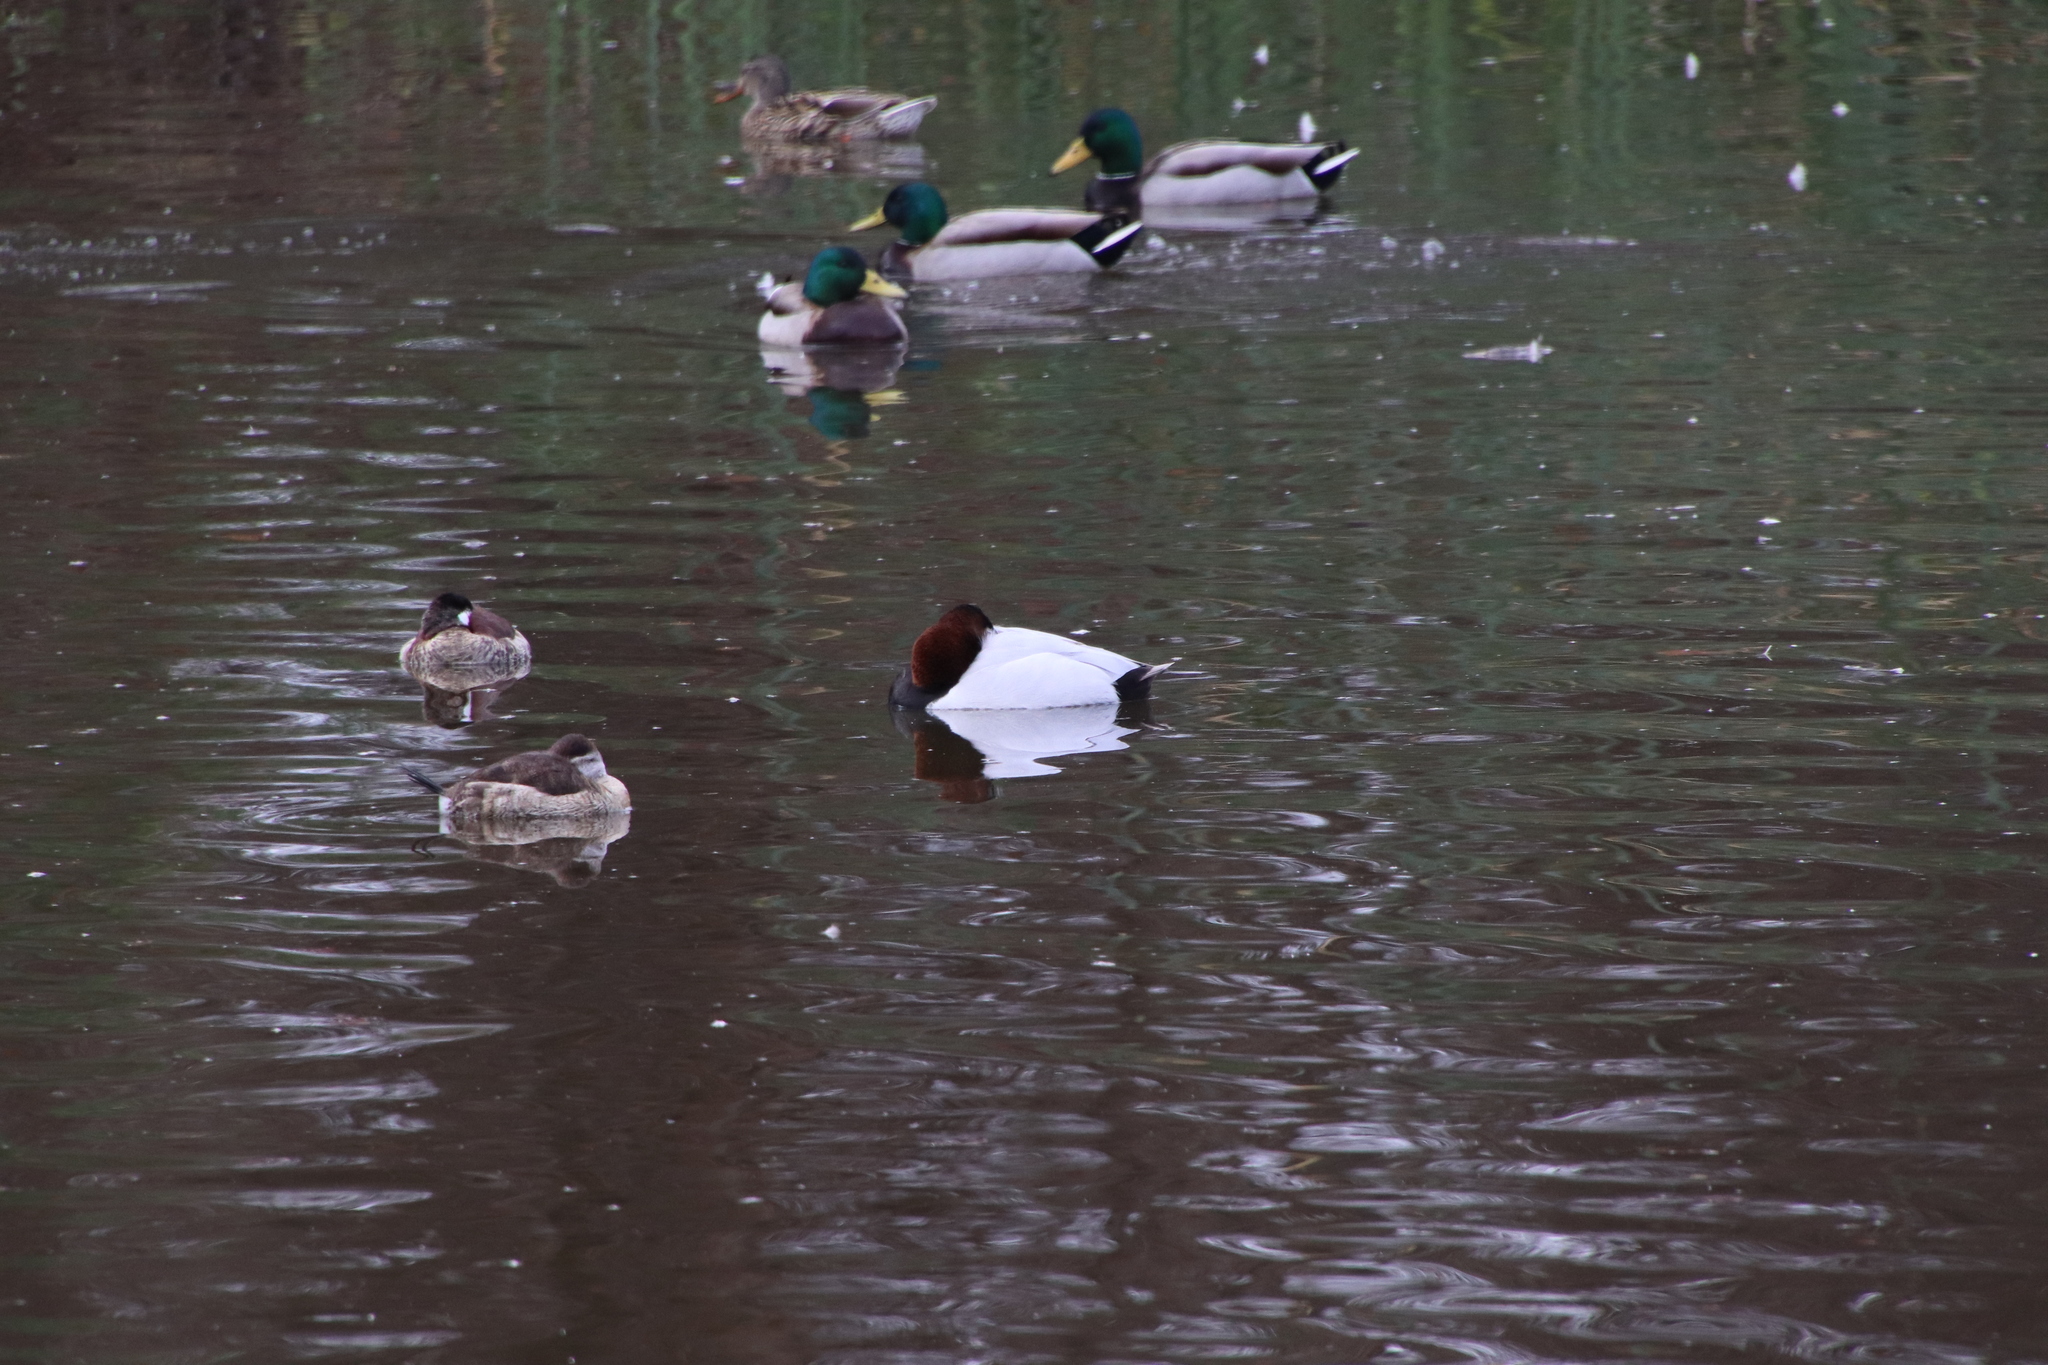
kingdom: Animalia
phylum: Chordata
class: Aves
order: Anseriformes
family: Anatidae
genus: Aythya
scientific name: Aythya valisineria
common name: Canvasback
